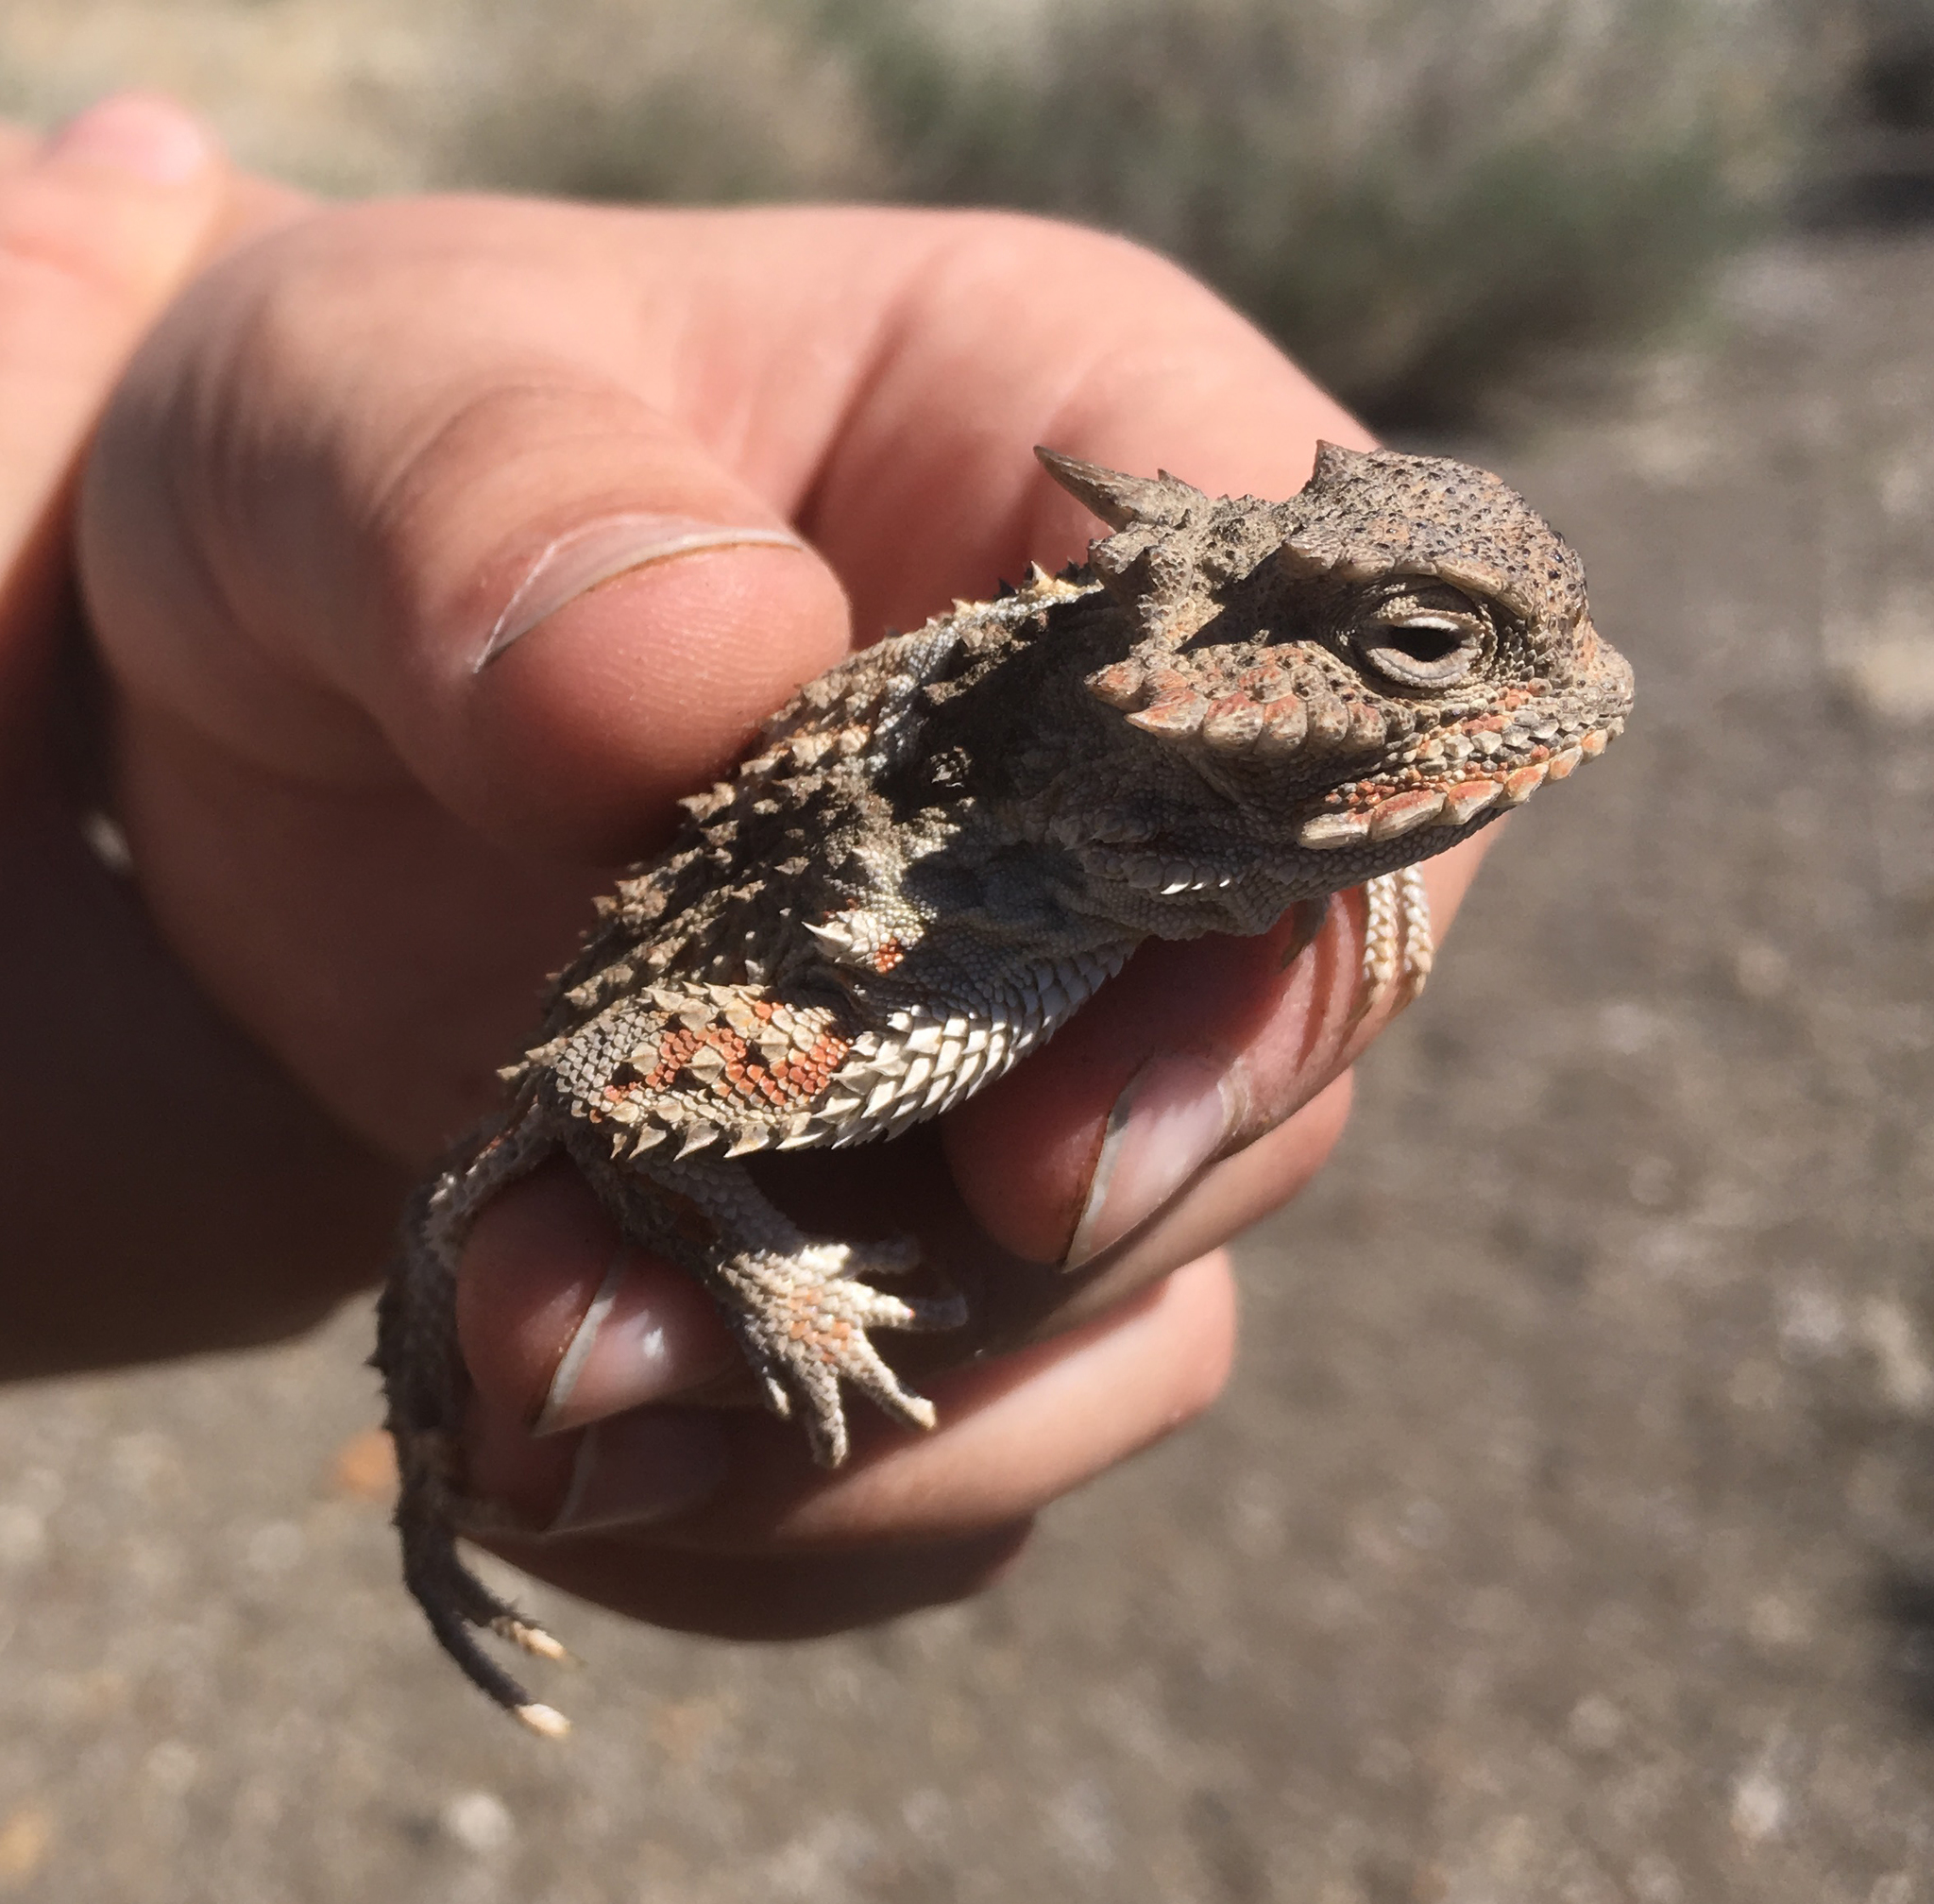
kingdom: Animalia
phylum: Chordata
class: Squamata
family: Phrynosomatidae
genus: Phrynosoma
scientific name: Phrynosoma platyrhinos
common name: Desert horned lizard
